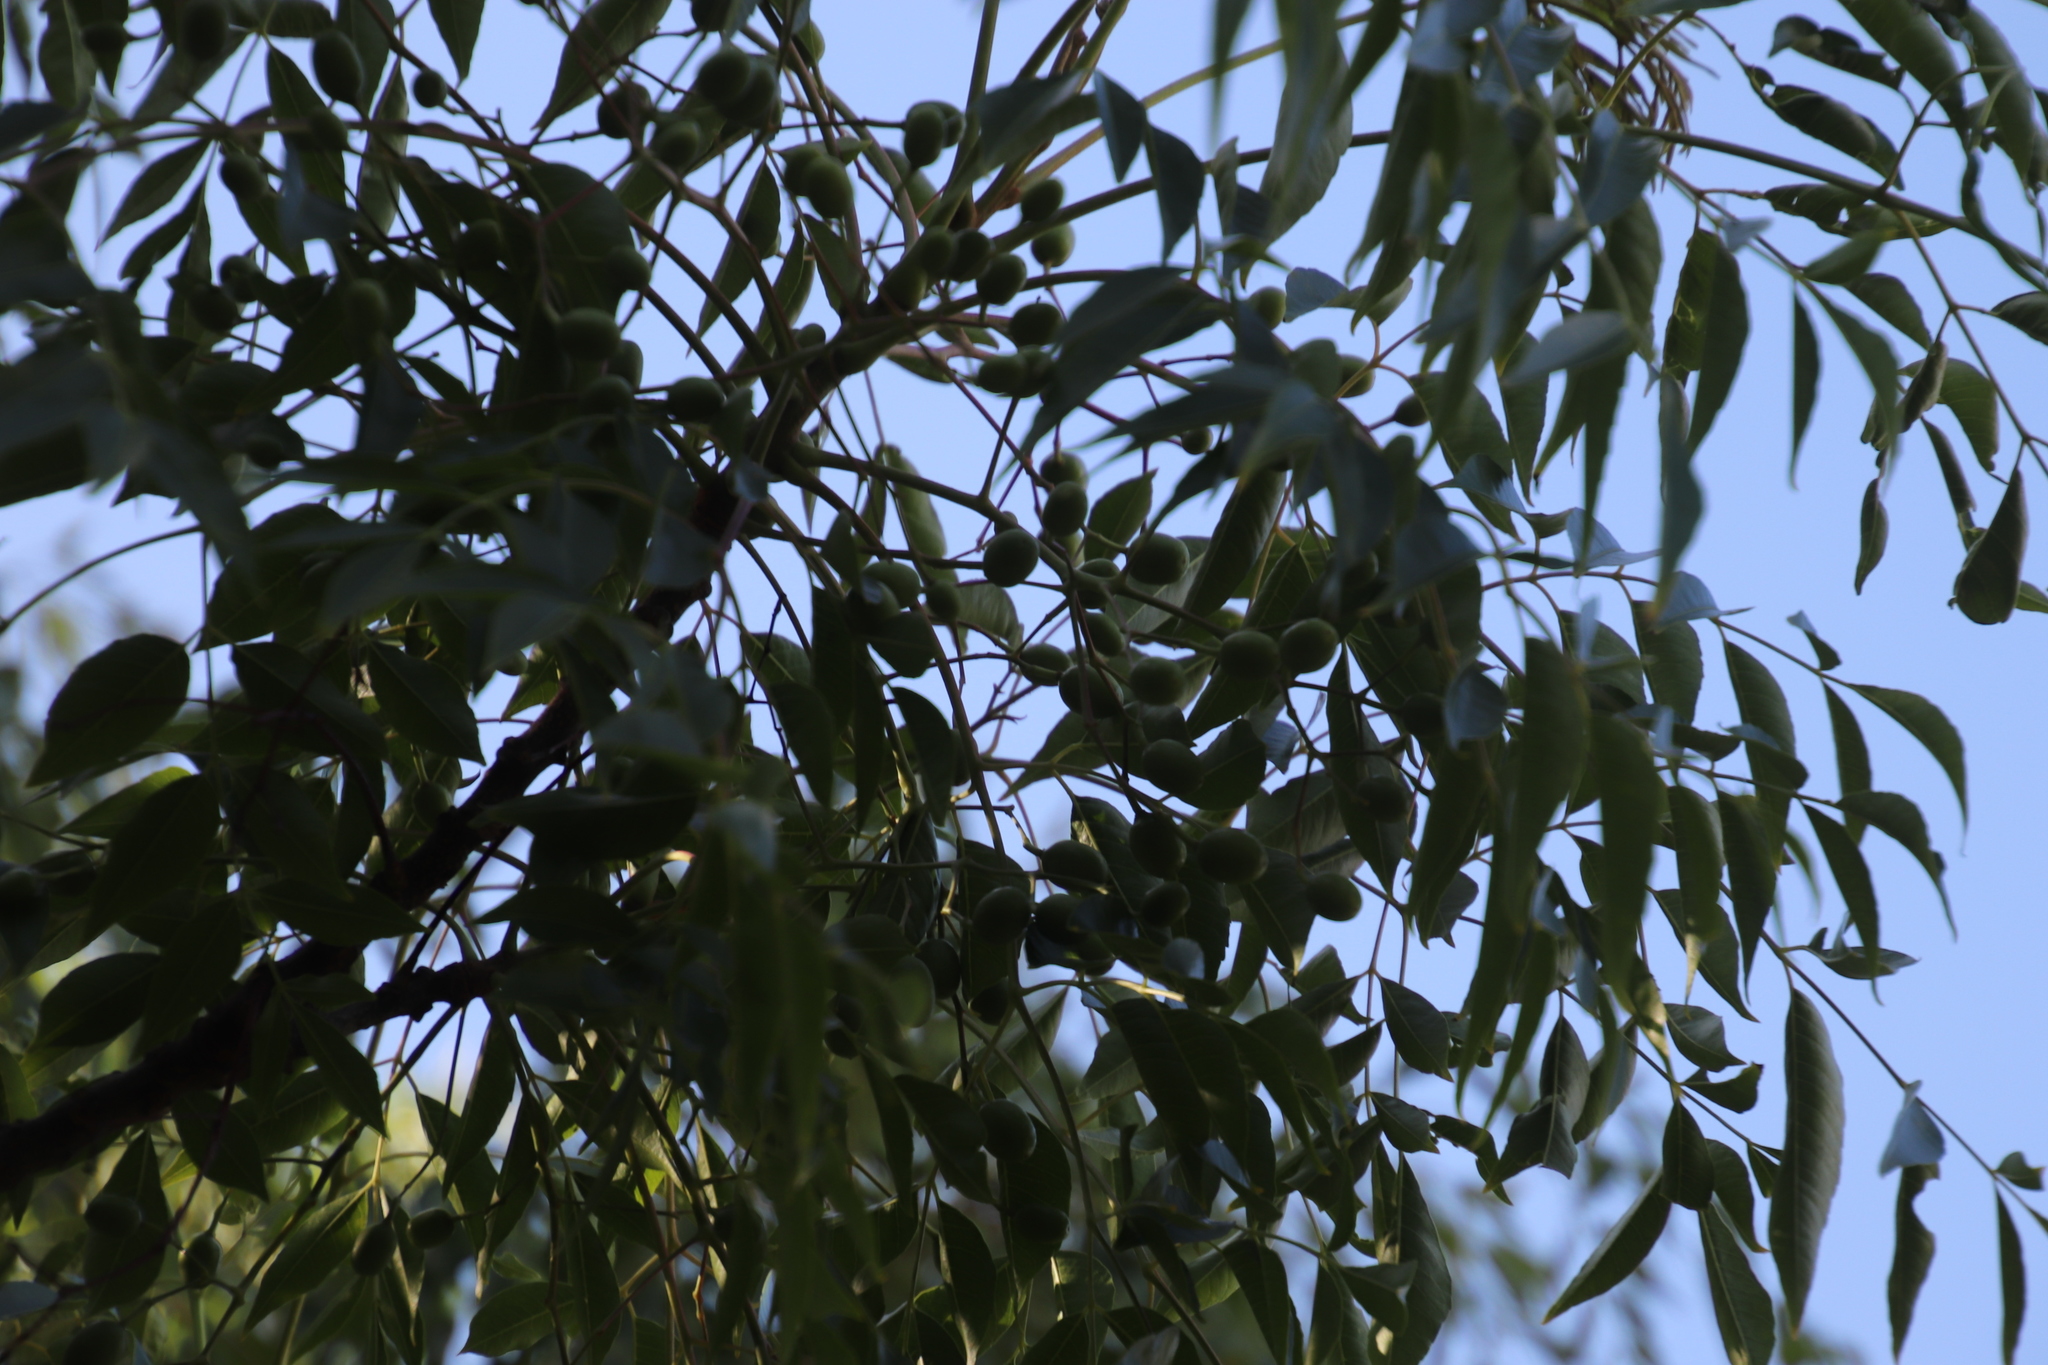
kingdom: Plantae
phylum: Tracheophyta
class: Magnoliopsida
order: Sapindales
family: Meliaceae
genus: Melia
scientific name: Melia azedarach
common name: Chinaberrytree
